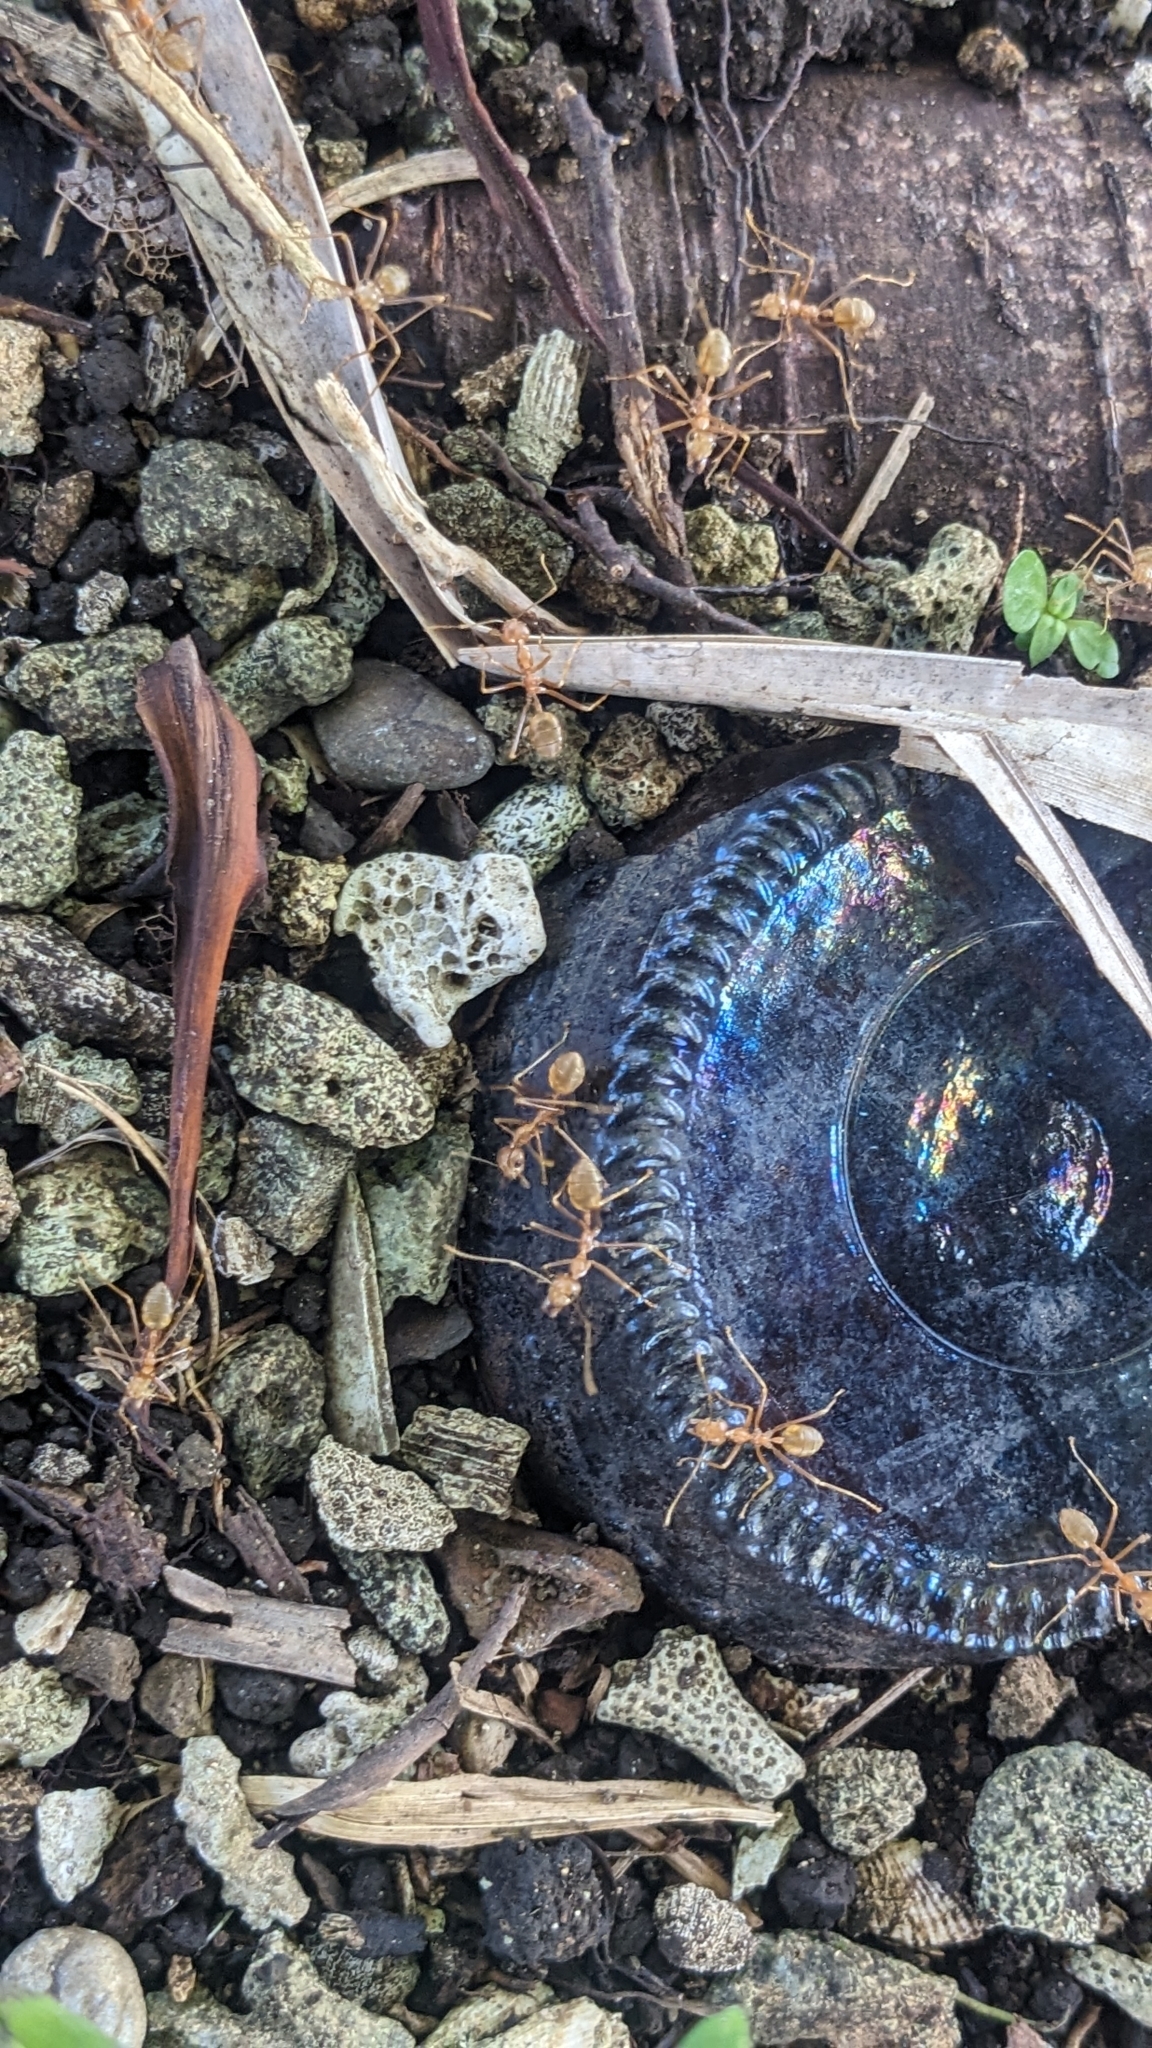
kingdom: Animalia
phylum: Arthropoda
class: Insecta
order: Hymenoptera
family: Formicidae
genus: Oecophylla
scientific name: Oecophylla smaragdina
